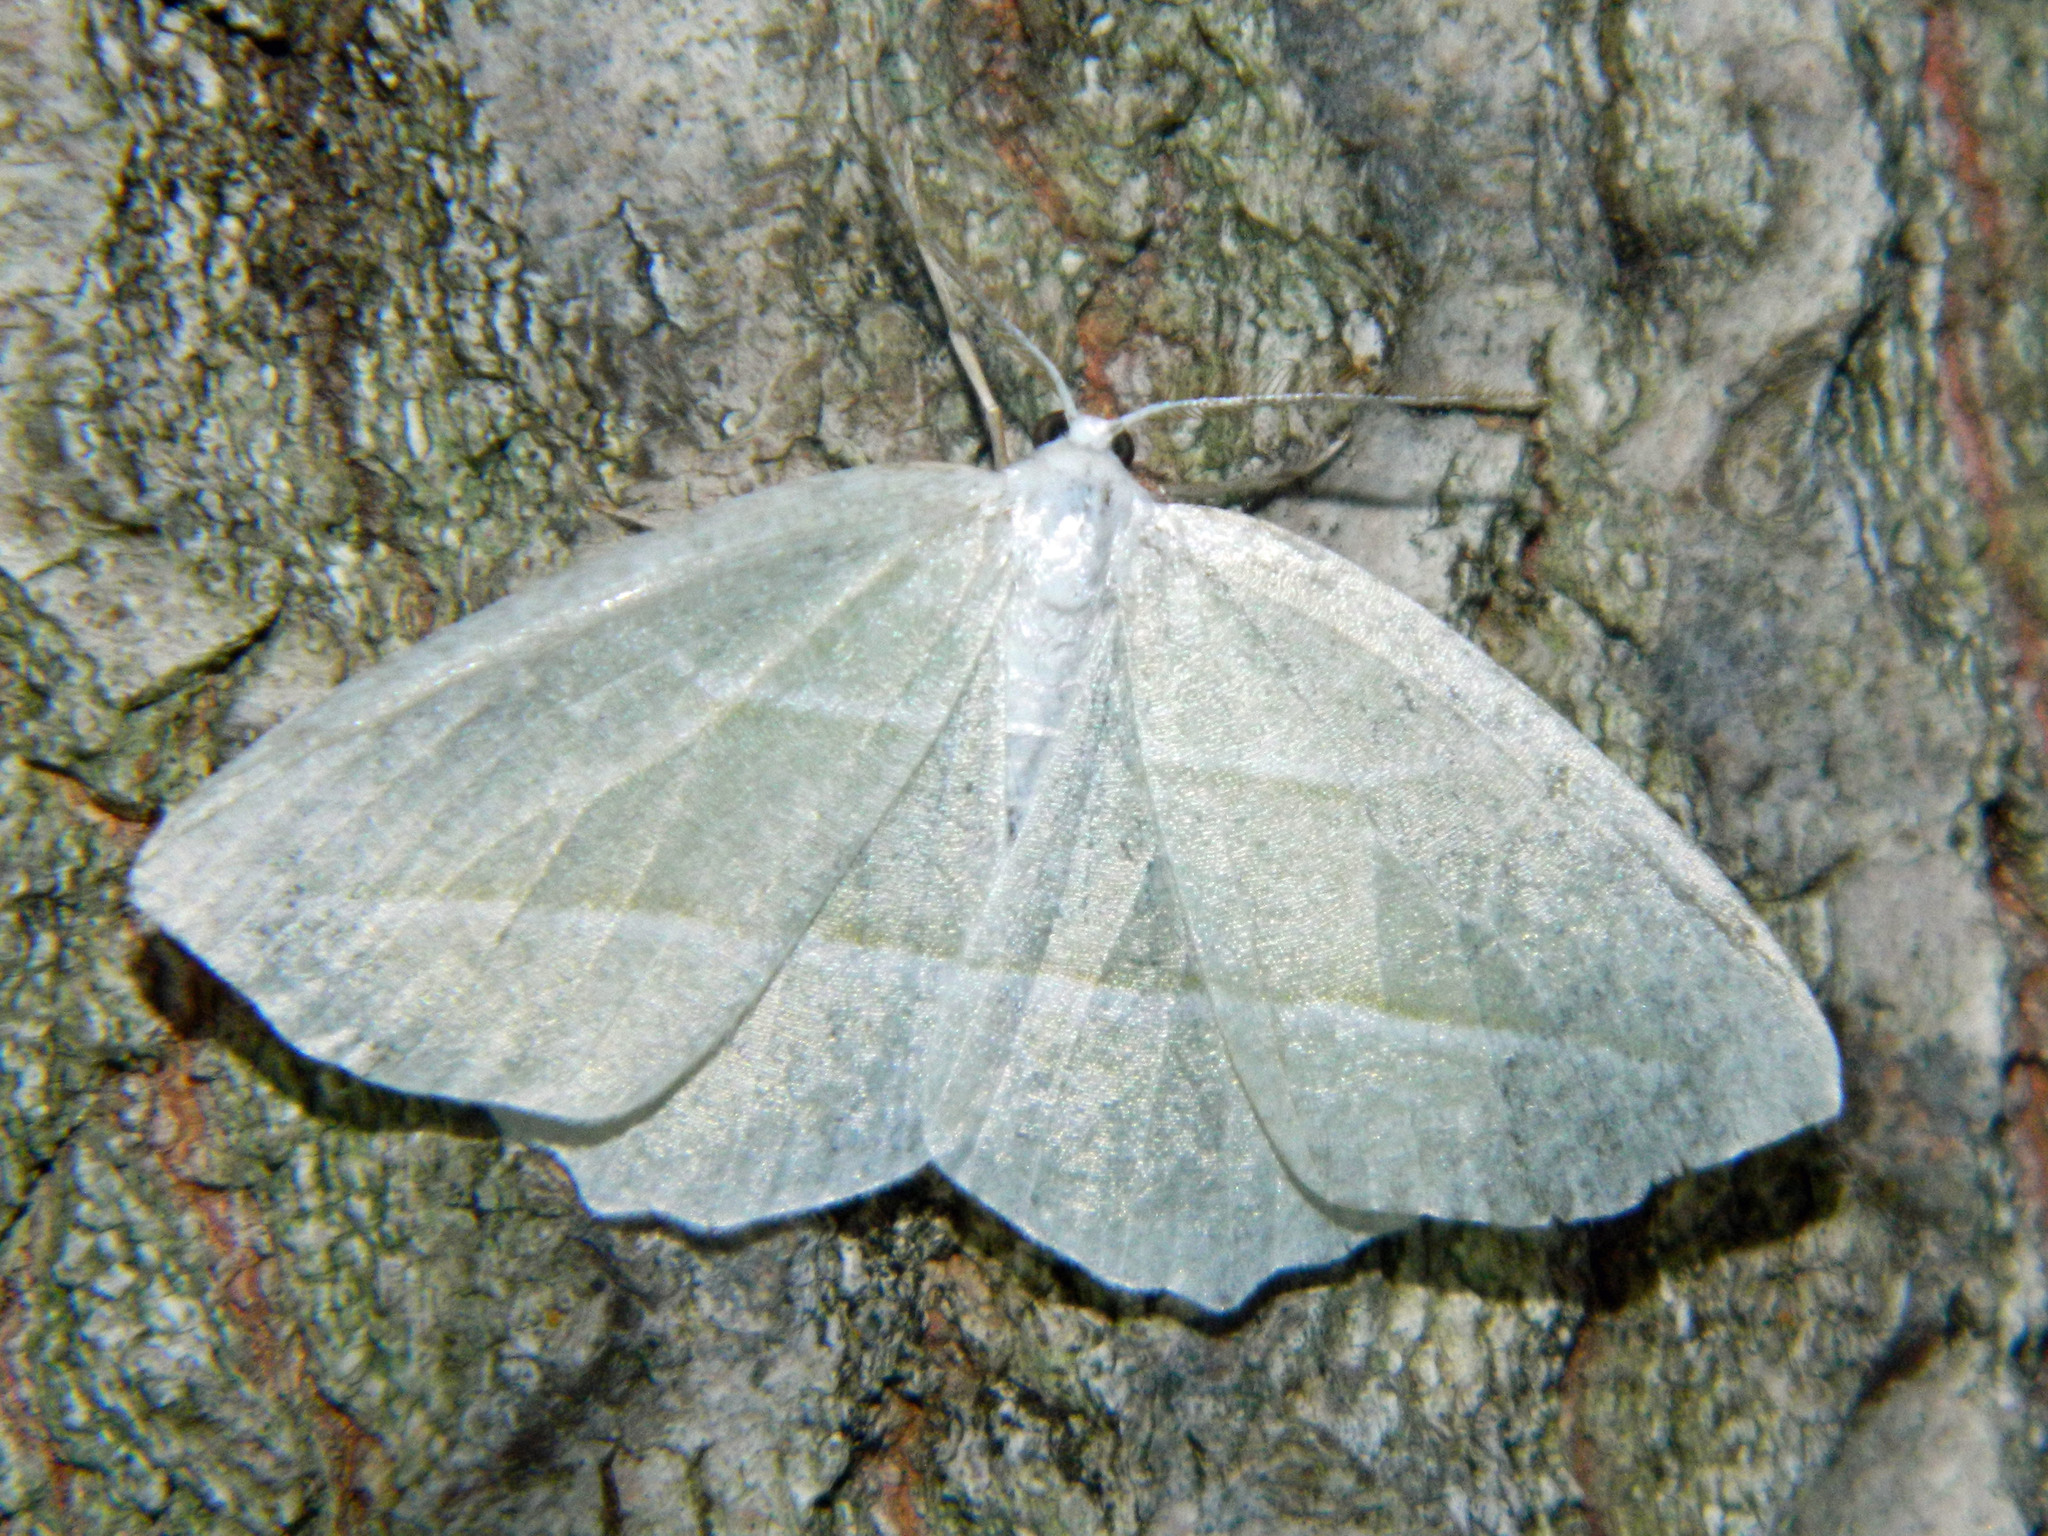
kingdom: Animalia
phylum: Arthropoda
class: Insecta
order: Lepidoptera
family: Geometridae
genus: Campaea
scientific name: Campaea perlata
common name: Fringed looper
